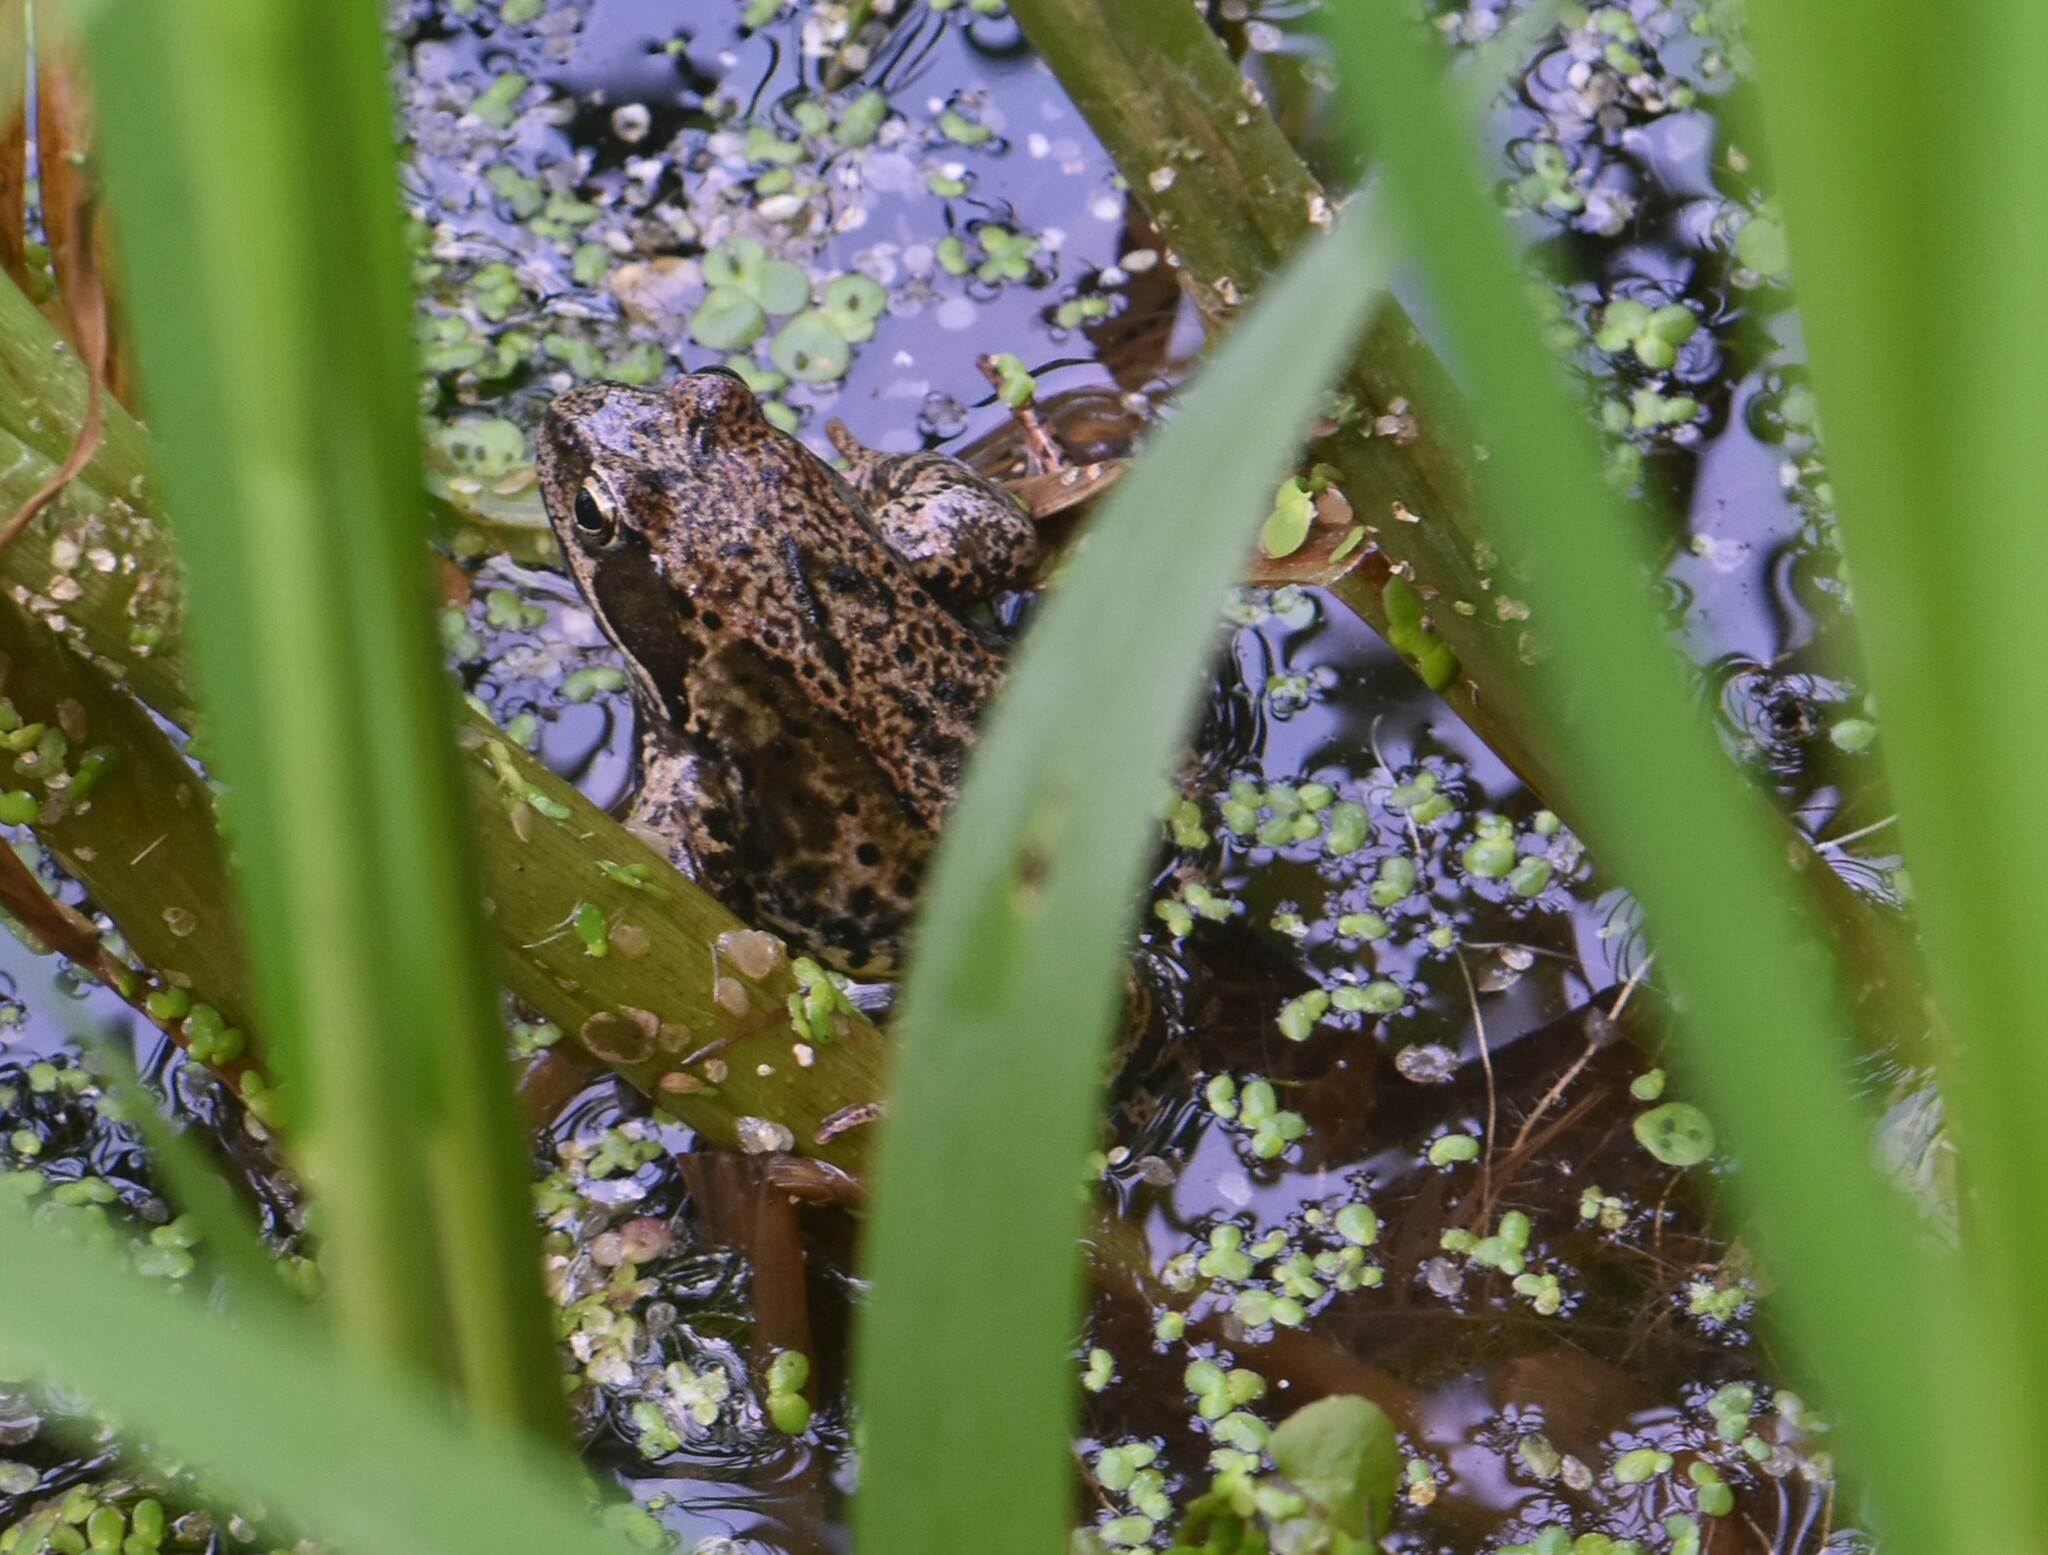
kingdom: Animalia
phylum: Chordata
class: Amphibia
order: Anura
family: Ranidae
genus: Rana
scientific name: Rana temporaria
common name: Common frog
